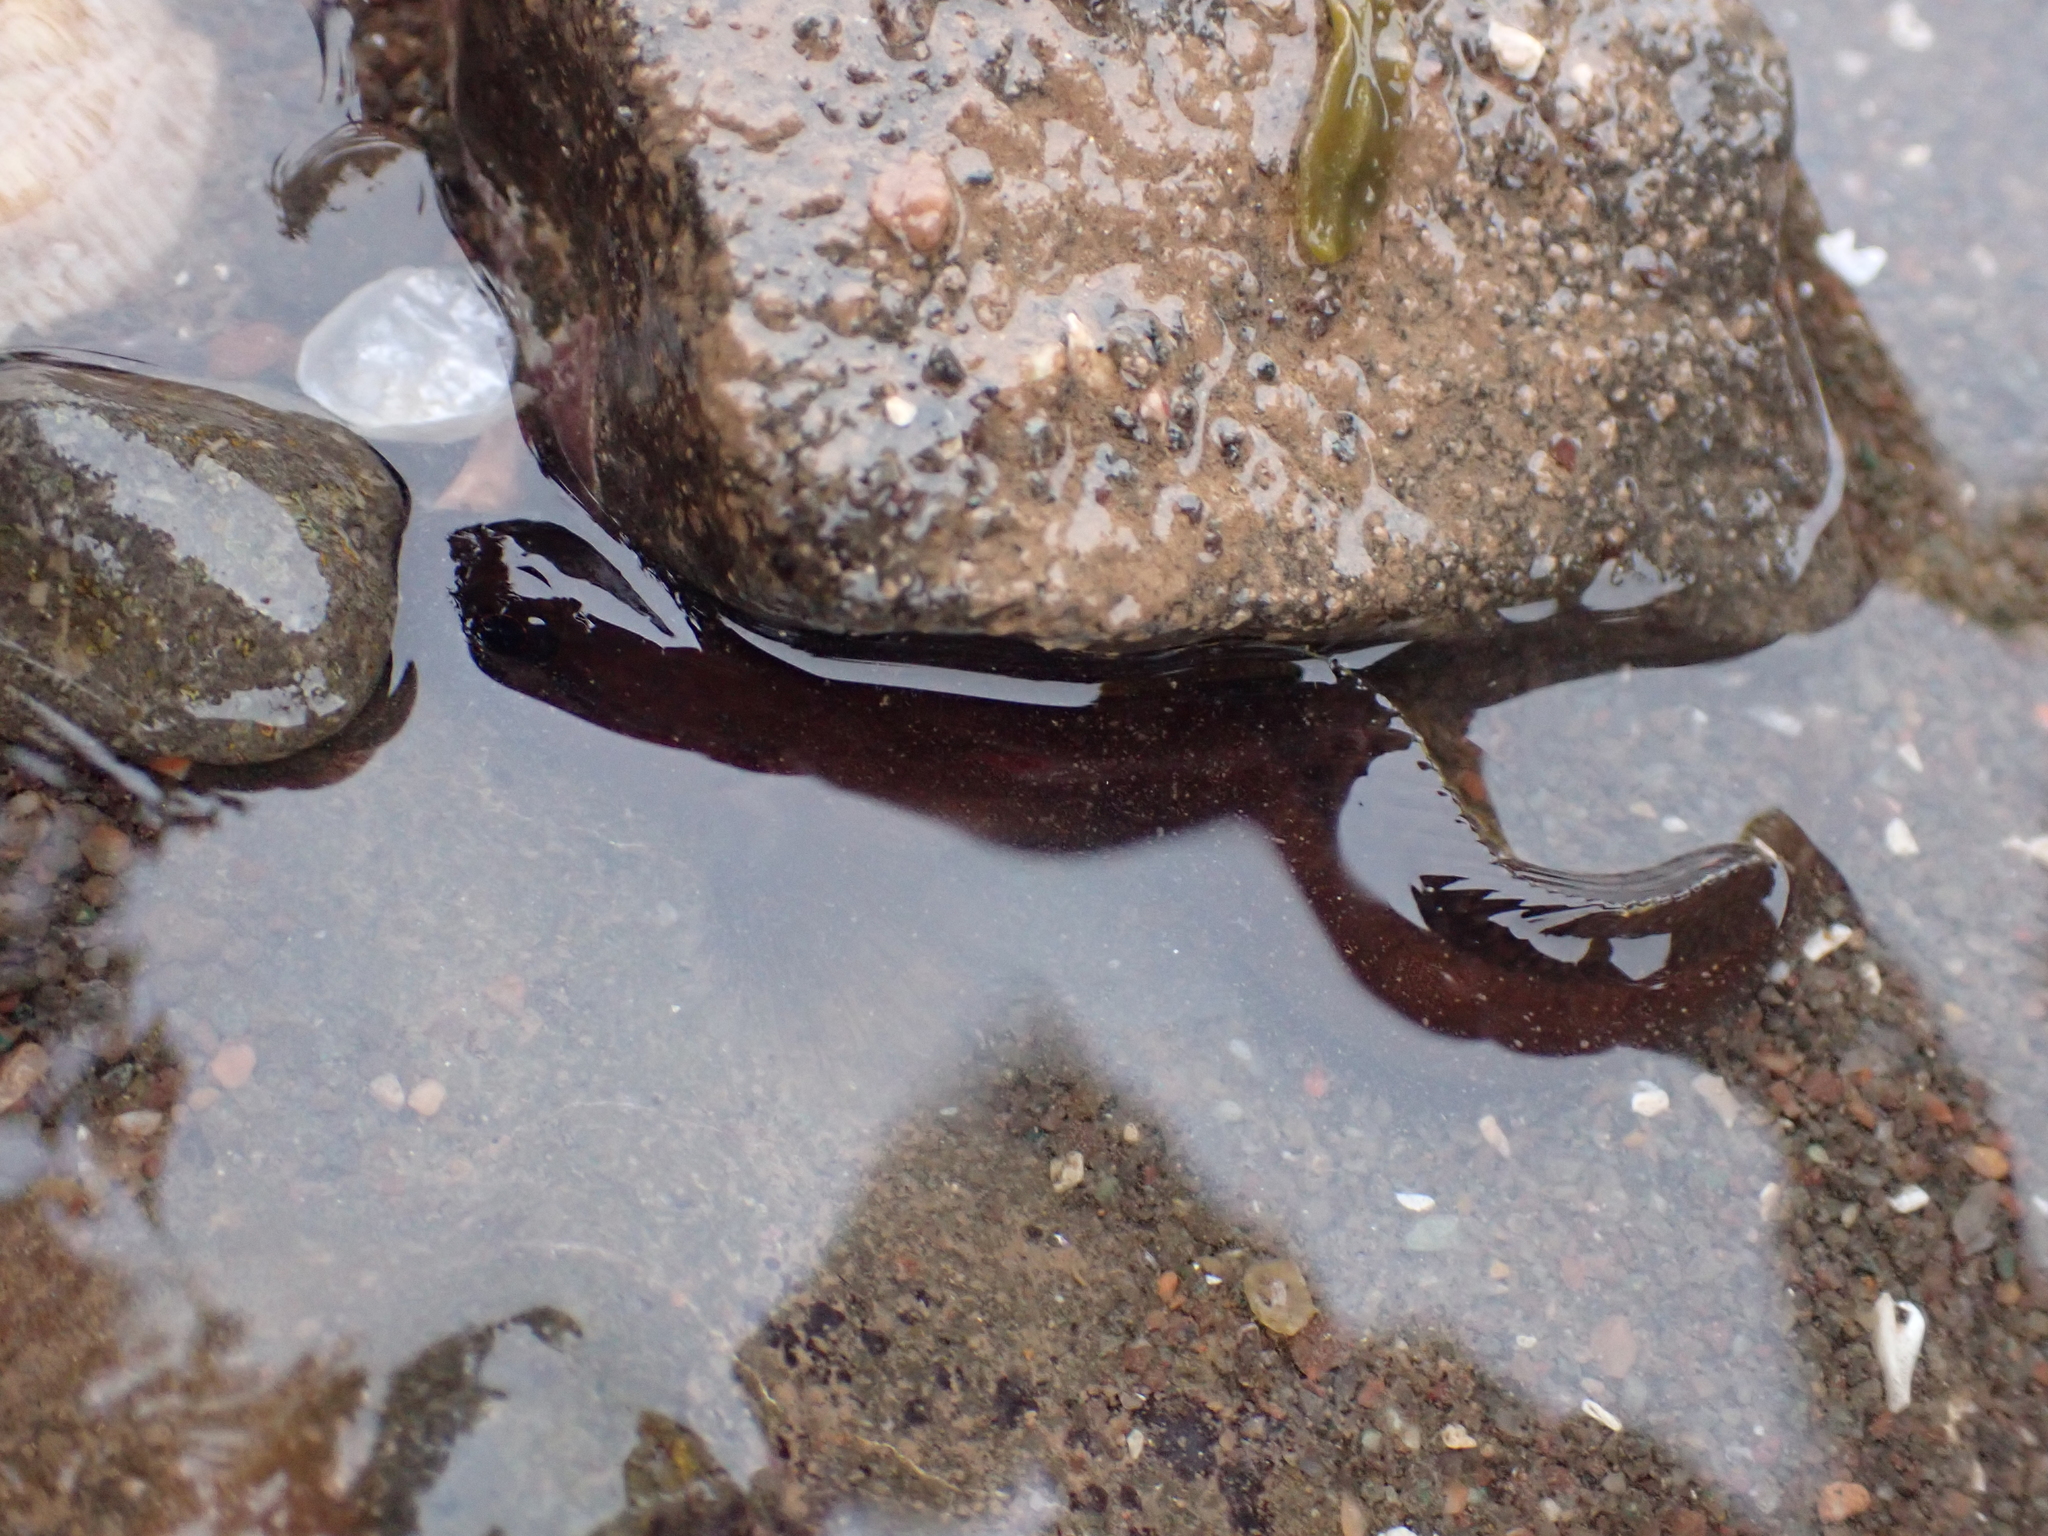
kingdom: Animalia
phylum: Chordata
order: Perciformes
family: Pholidae
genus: Pholis
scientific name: Pholis gunnellus
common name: Butterfish
